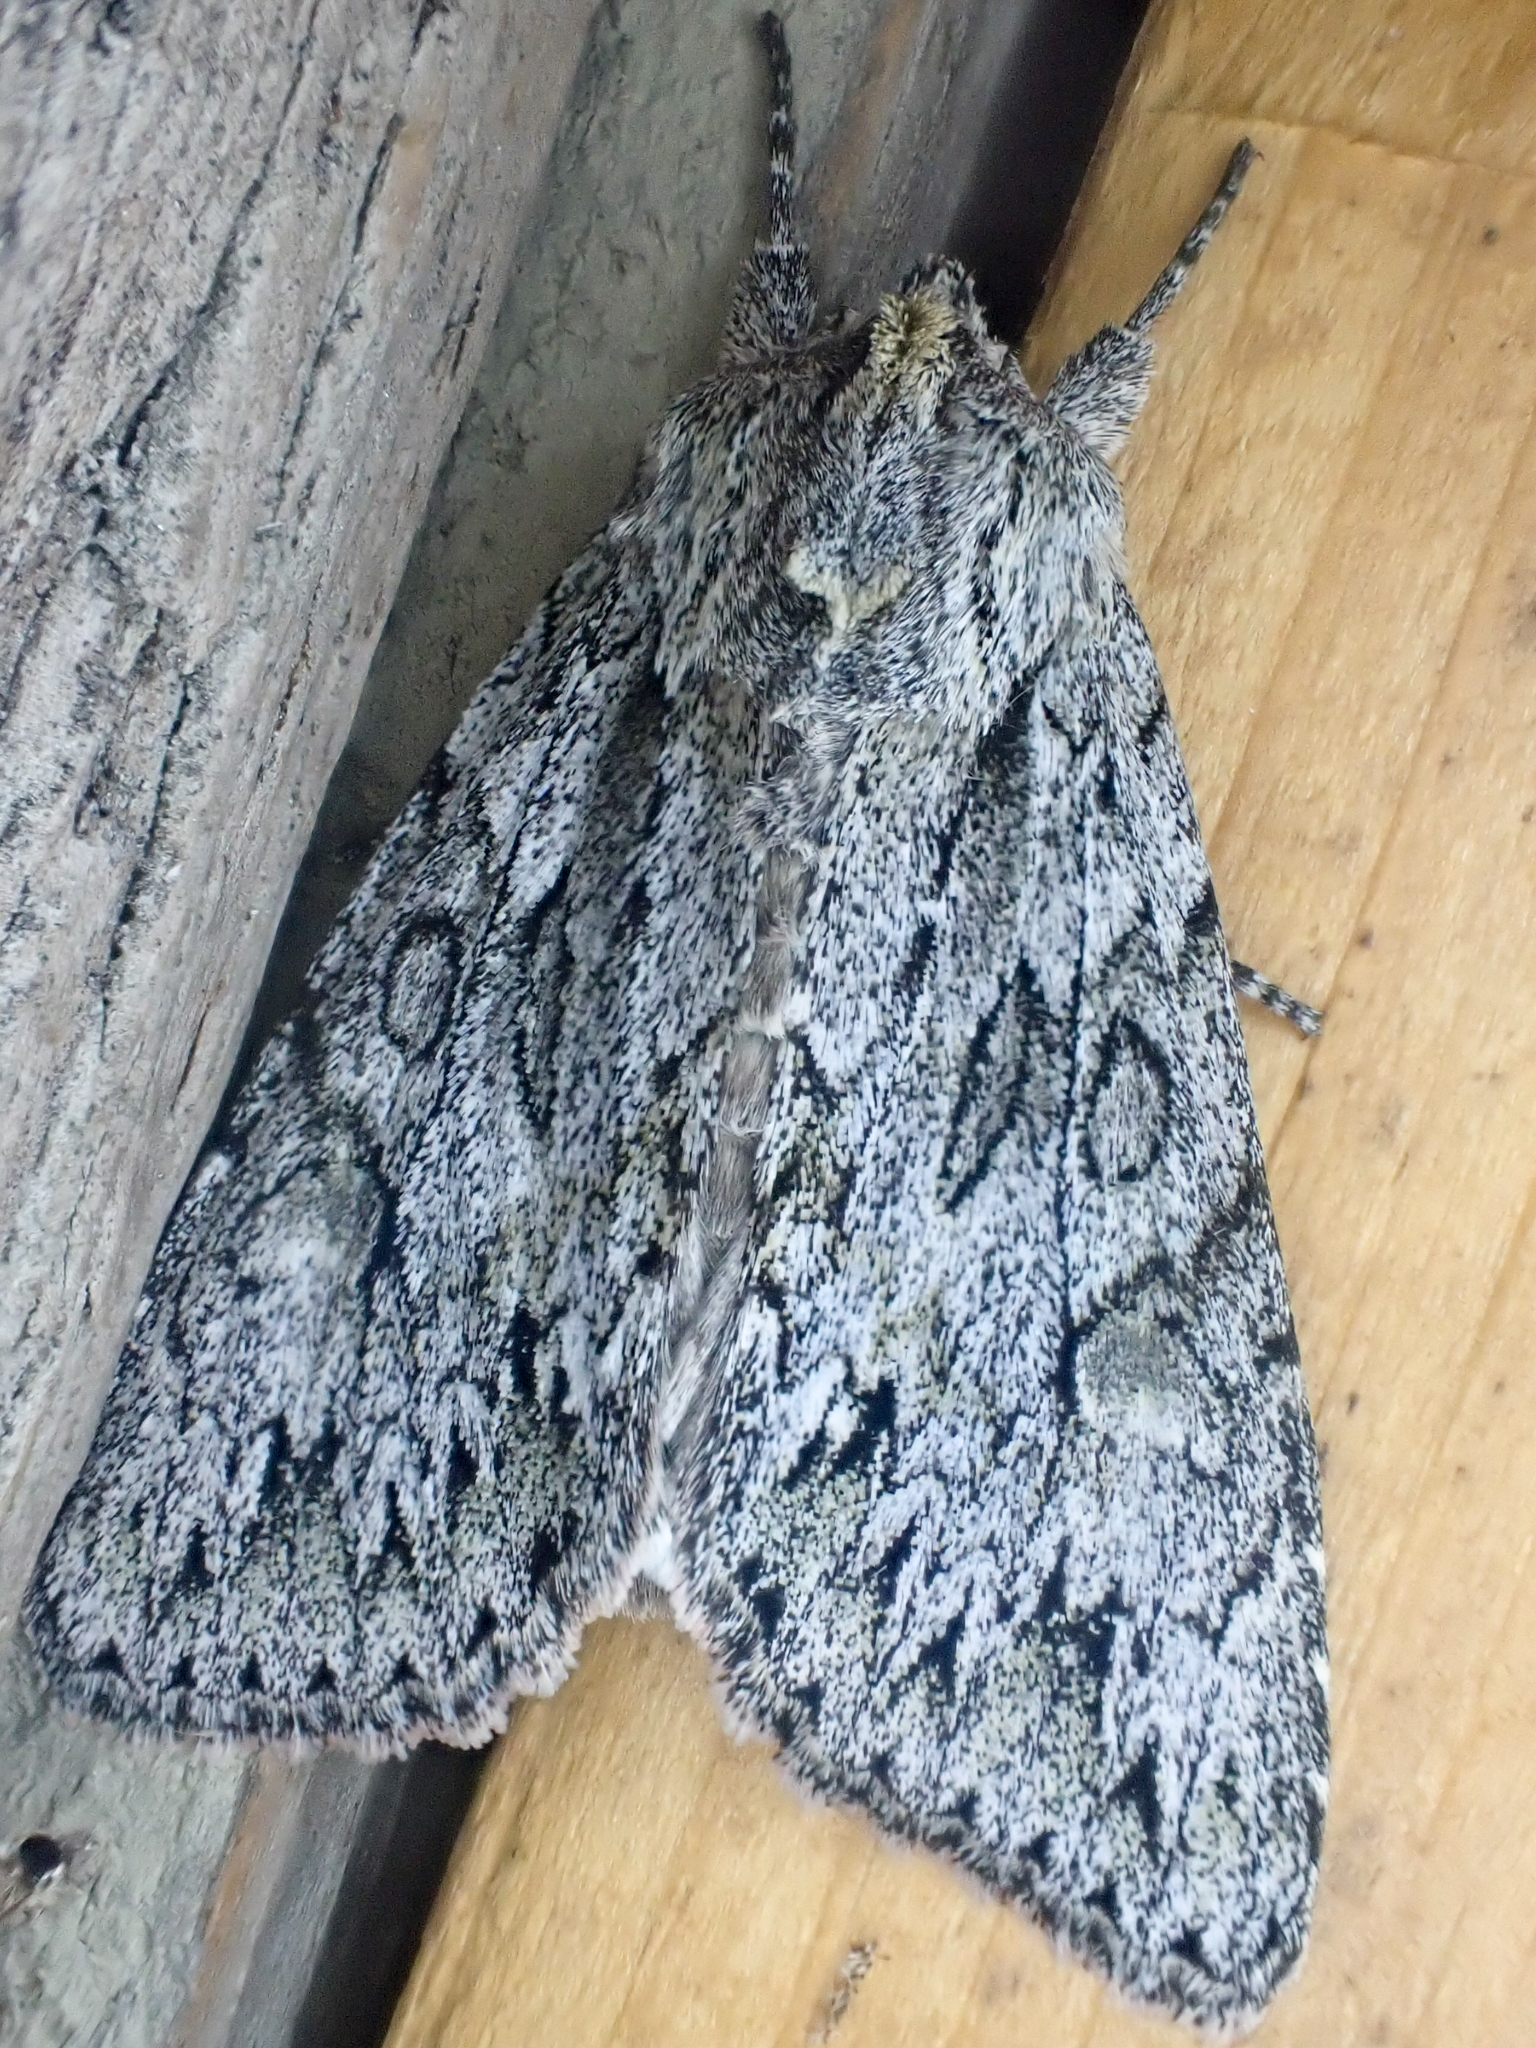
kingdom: Animalia
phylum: Arthropoda
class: Insecta
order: Lepidoptera
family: Noctuidae
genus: Andropolia
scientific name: Andropolia aedon
